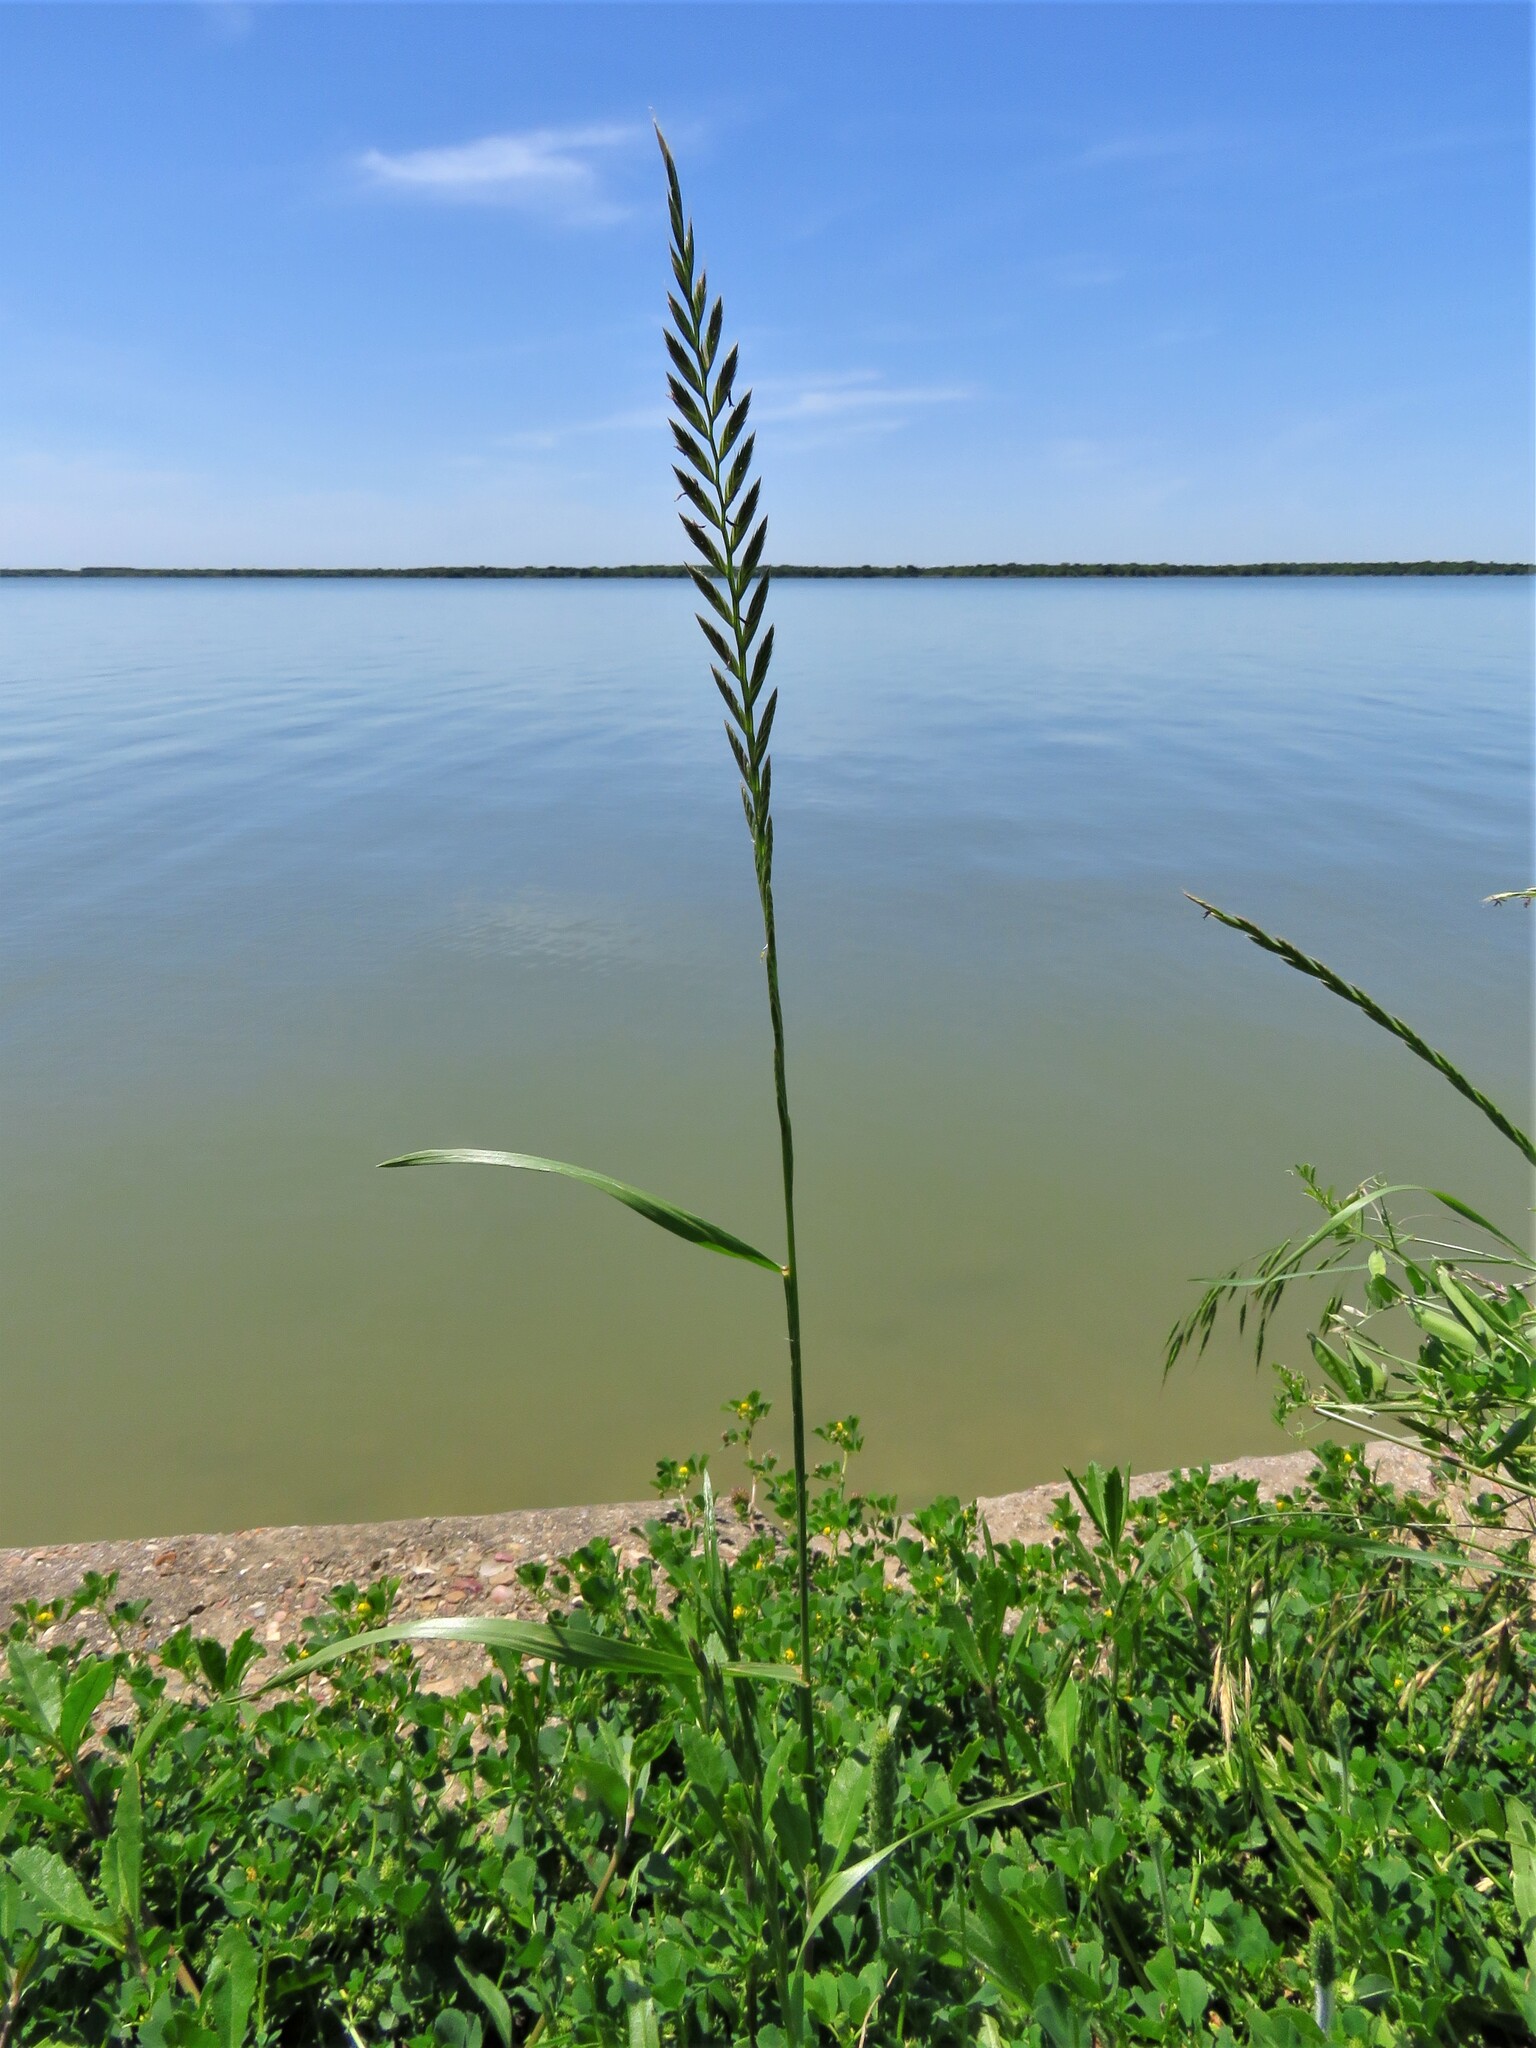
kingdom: Plantae
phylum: Tracheophyta
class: Liliopsida
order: Poales
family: Poaceae
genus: Lolium
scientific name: Lolium perenne
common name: Perennial ryegrass
